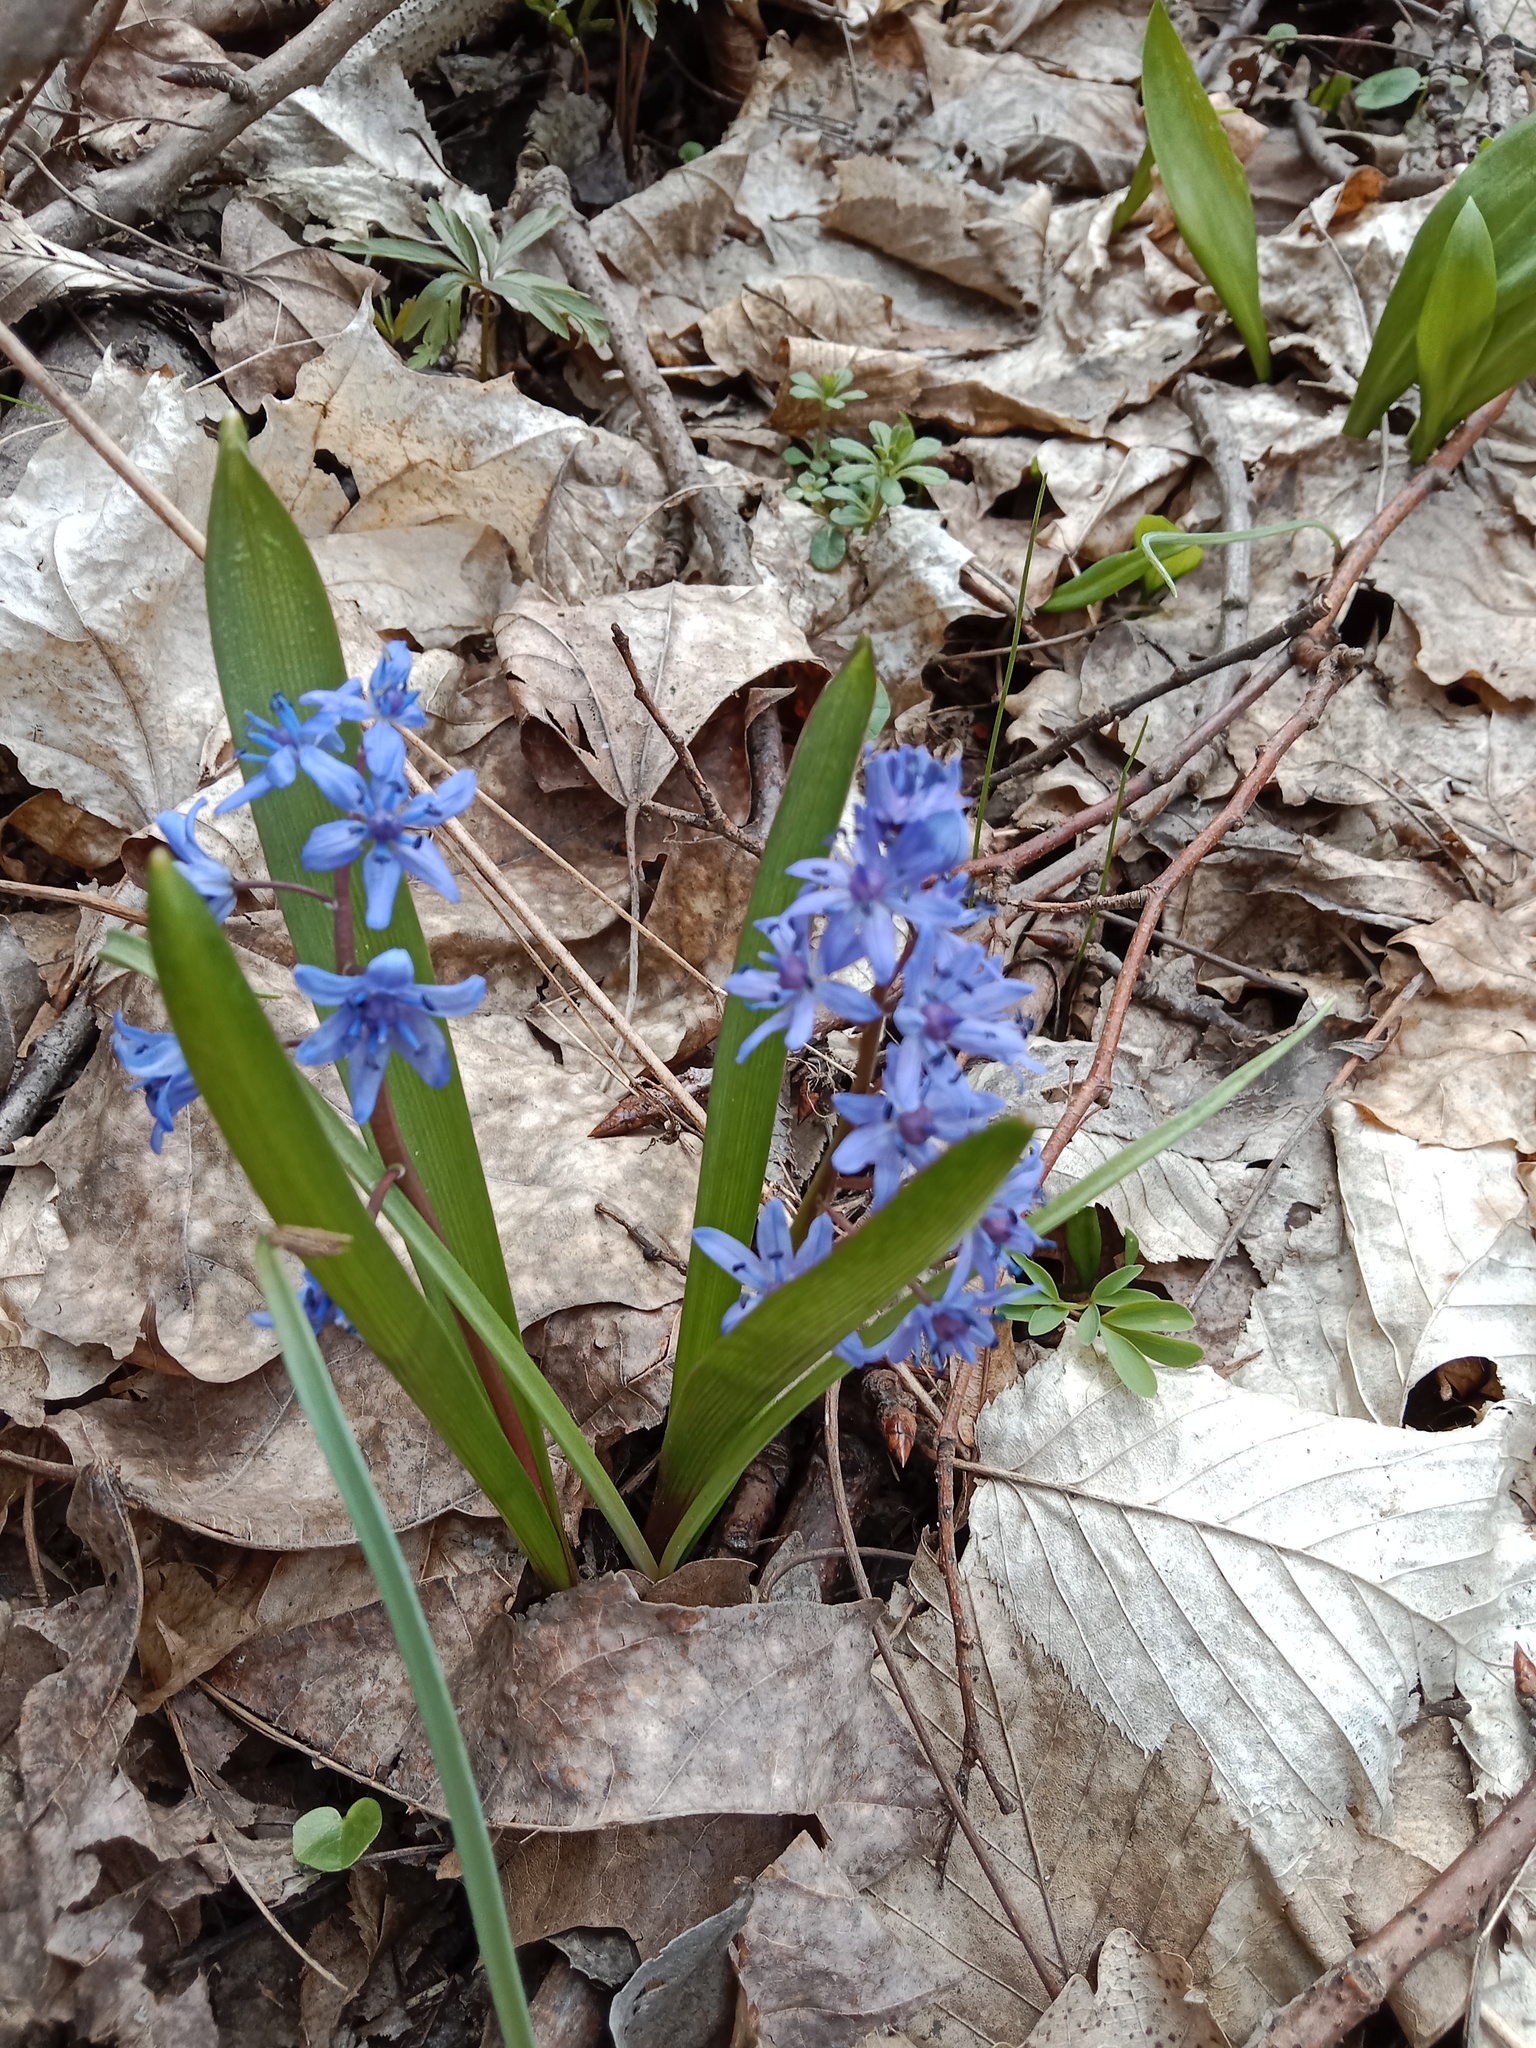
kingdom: Plantae
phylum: Tracheophyta
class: Liliopsida
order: Asparagales
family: Asparagaceae
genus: Scilla
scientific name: Scilla bifolia
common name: Alpine squill
